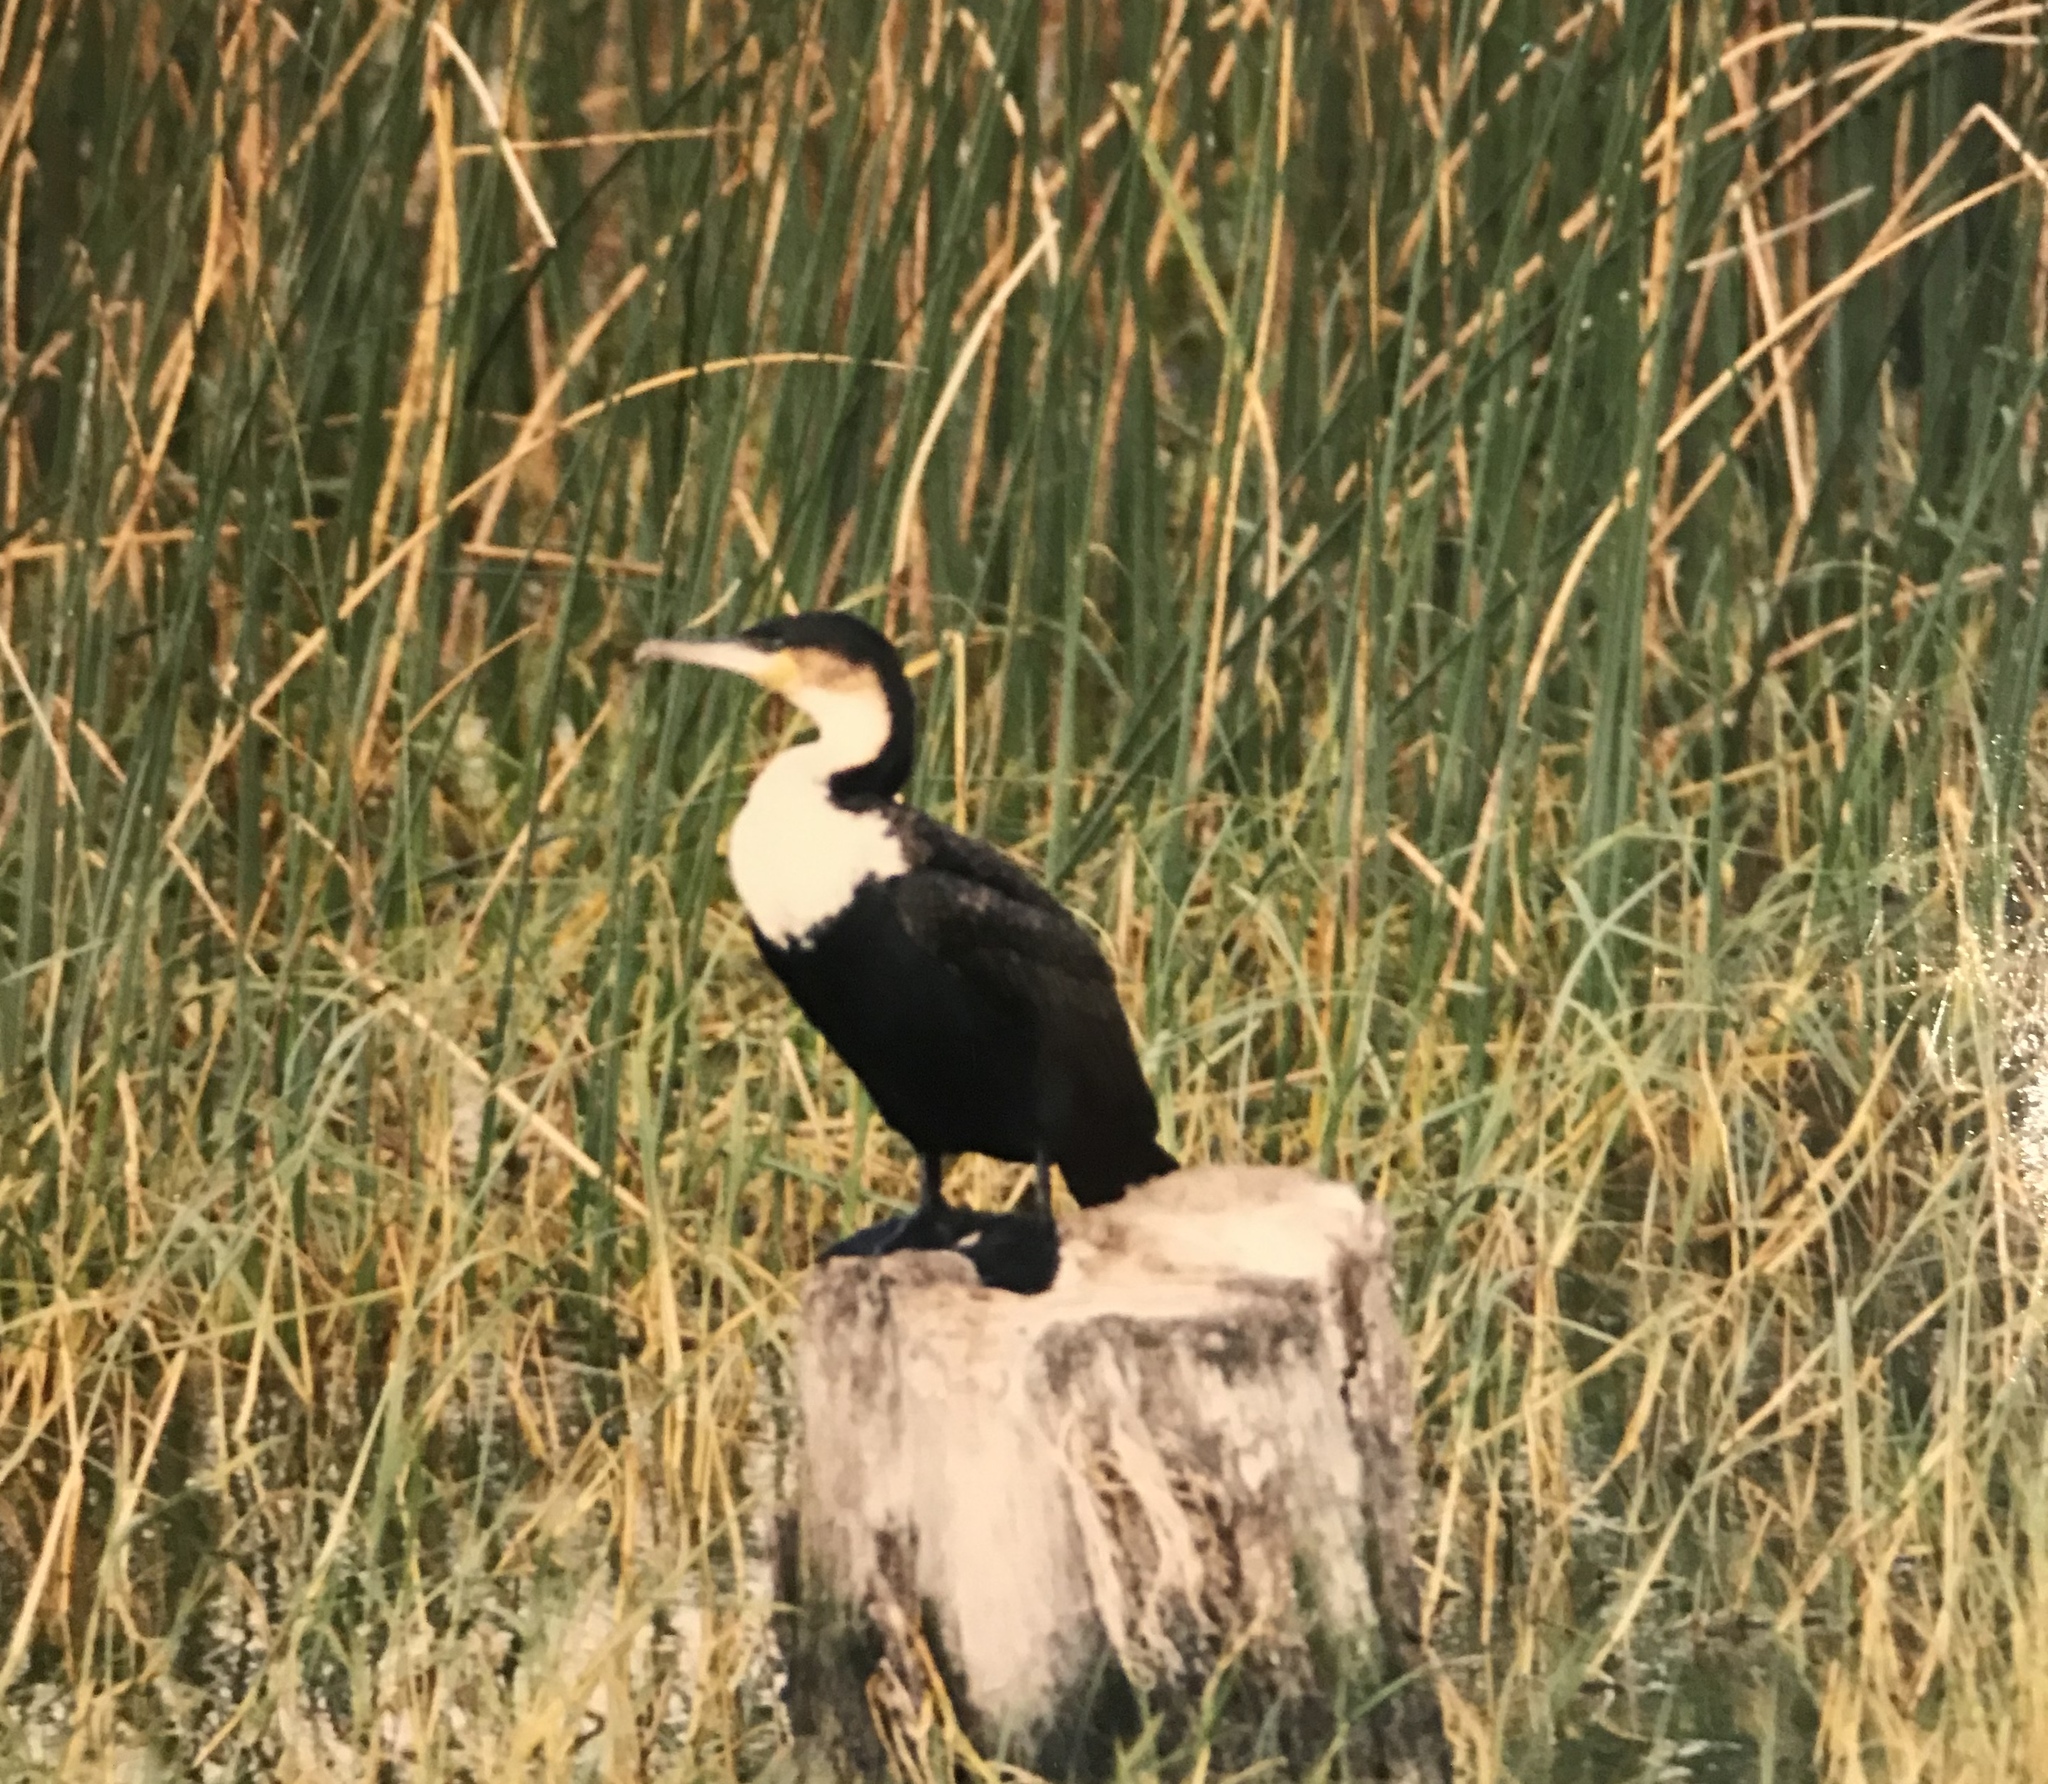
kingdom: Animalia
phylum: Chordata
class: Aves
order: Suliformes
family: Phalacrocoracidae
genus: Phalacrocorax
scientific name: Phalacrocorax carbo
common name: Great cormorant
